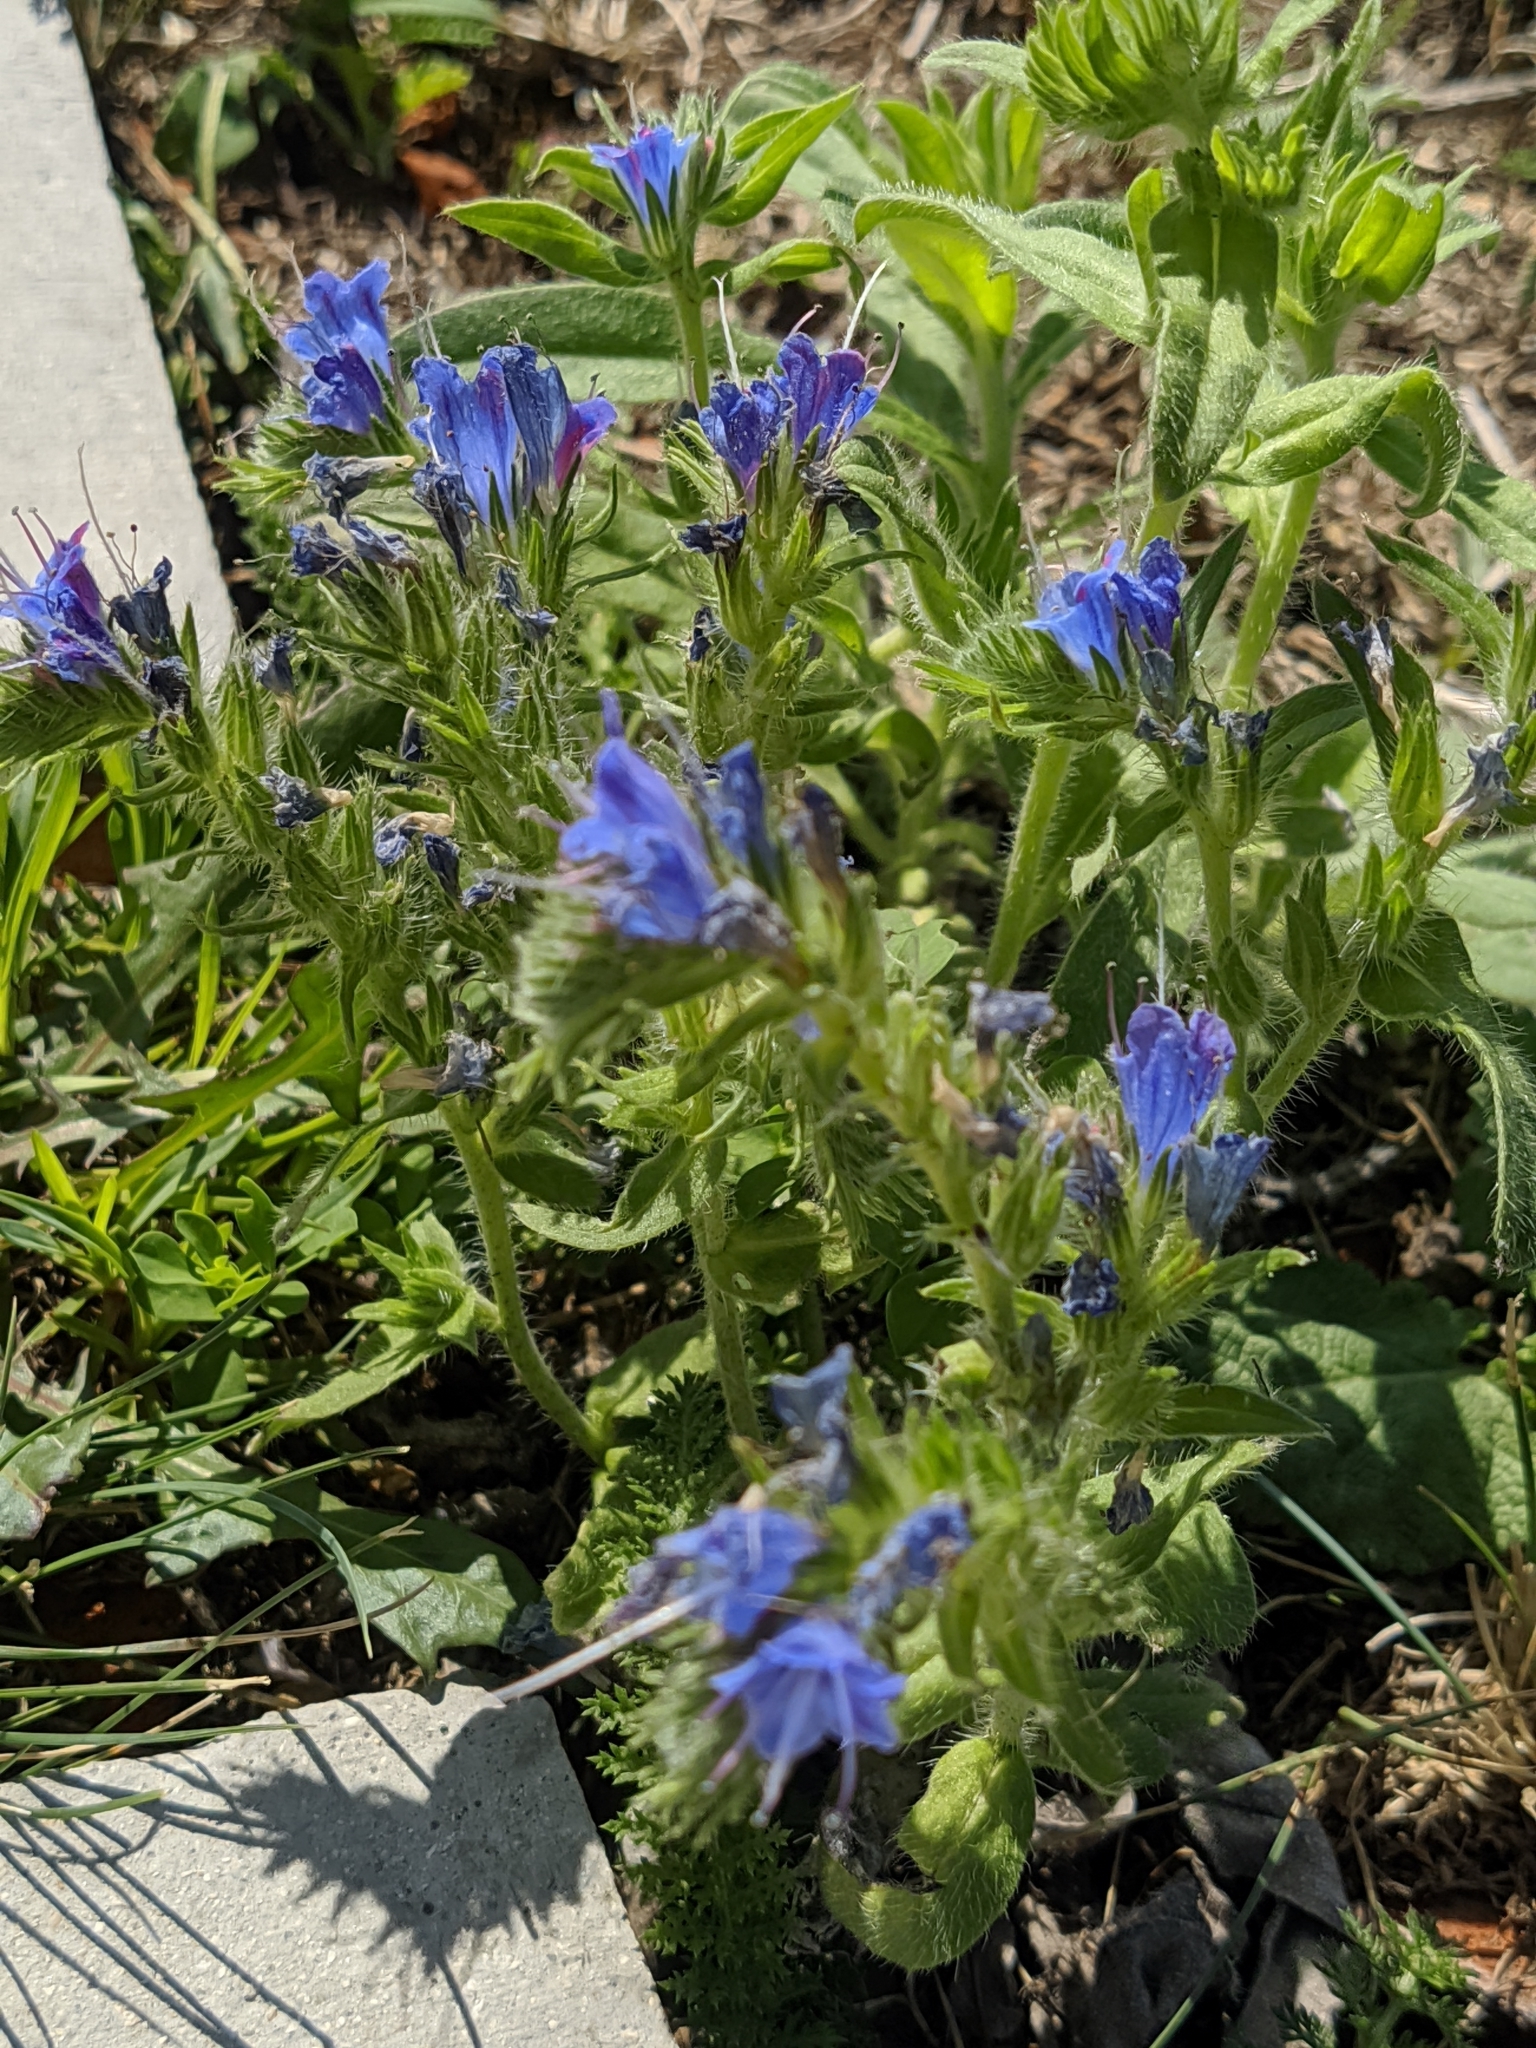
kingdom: Plantae
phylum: Tracheophyta
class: Magnoliopsida
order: Boraginales
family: Boraginaceae
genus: Echium
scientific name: Echium vulgare
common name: Common viper's bugloss
